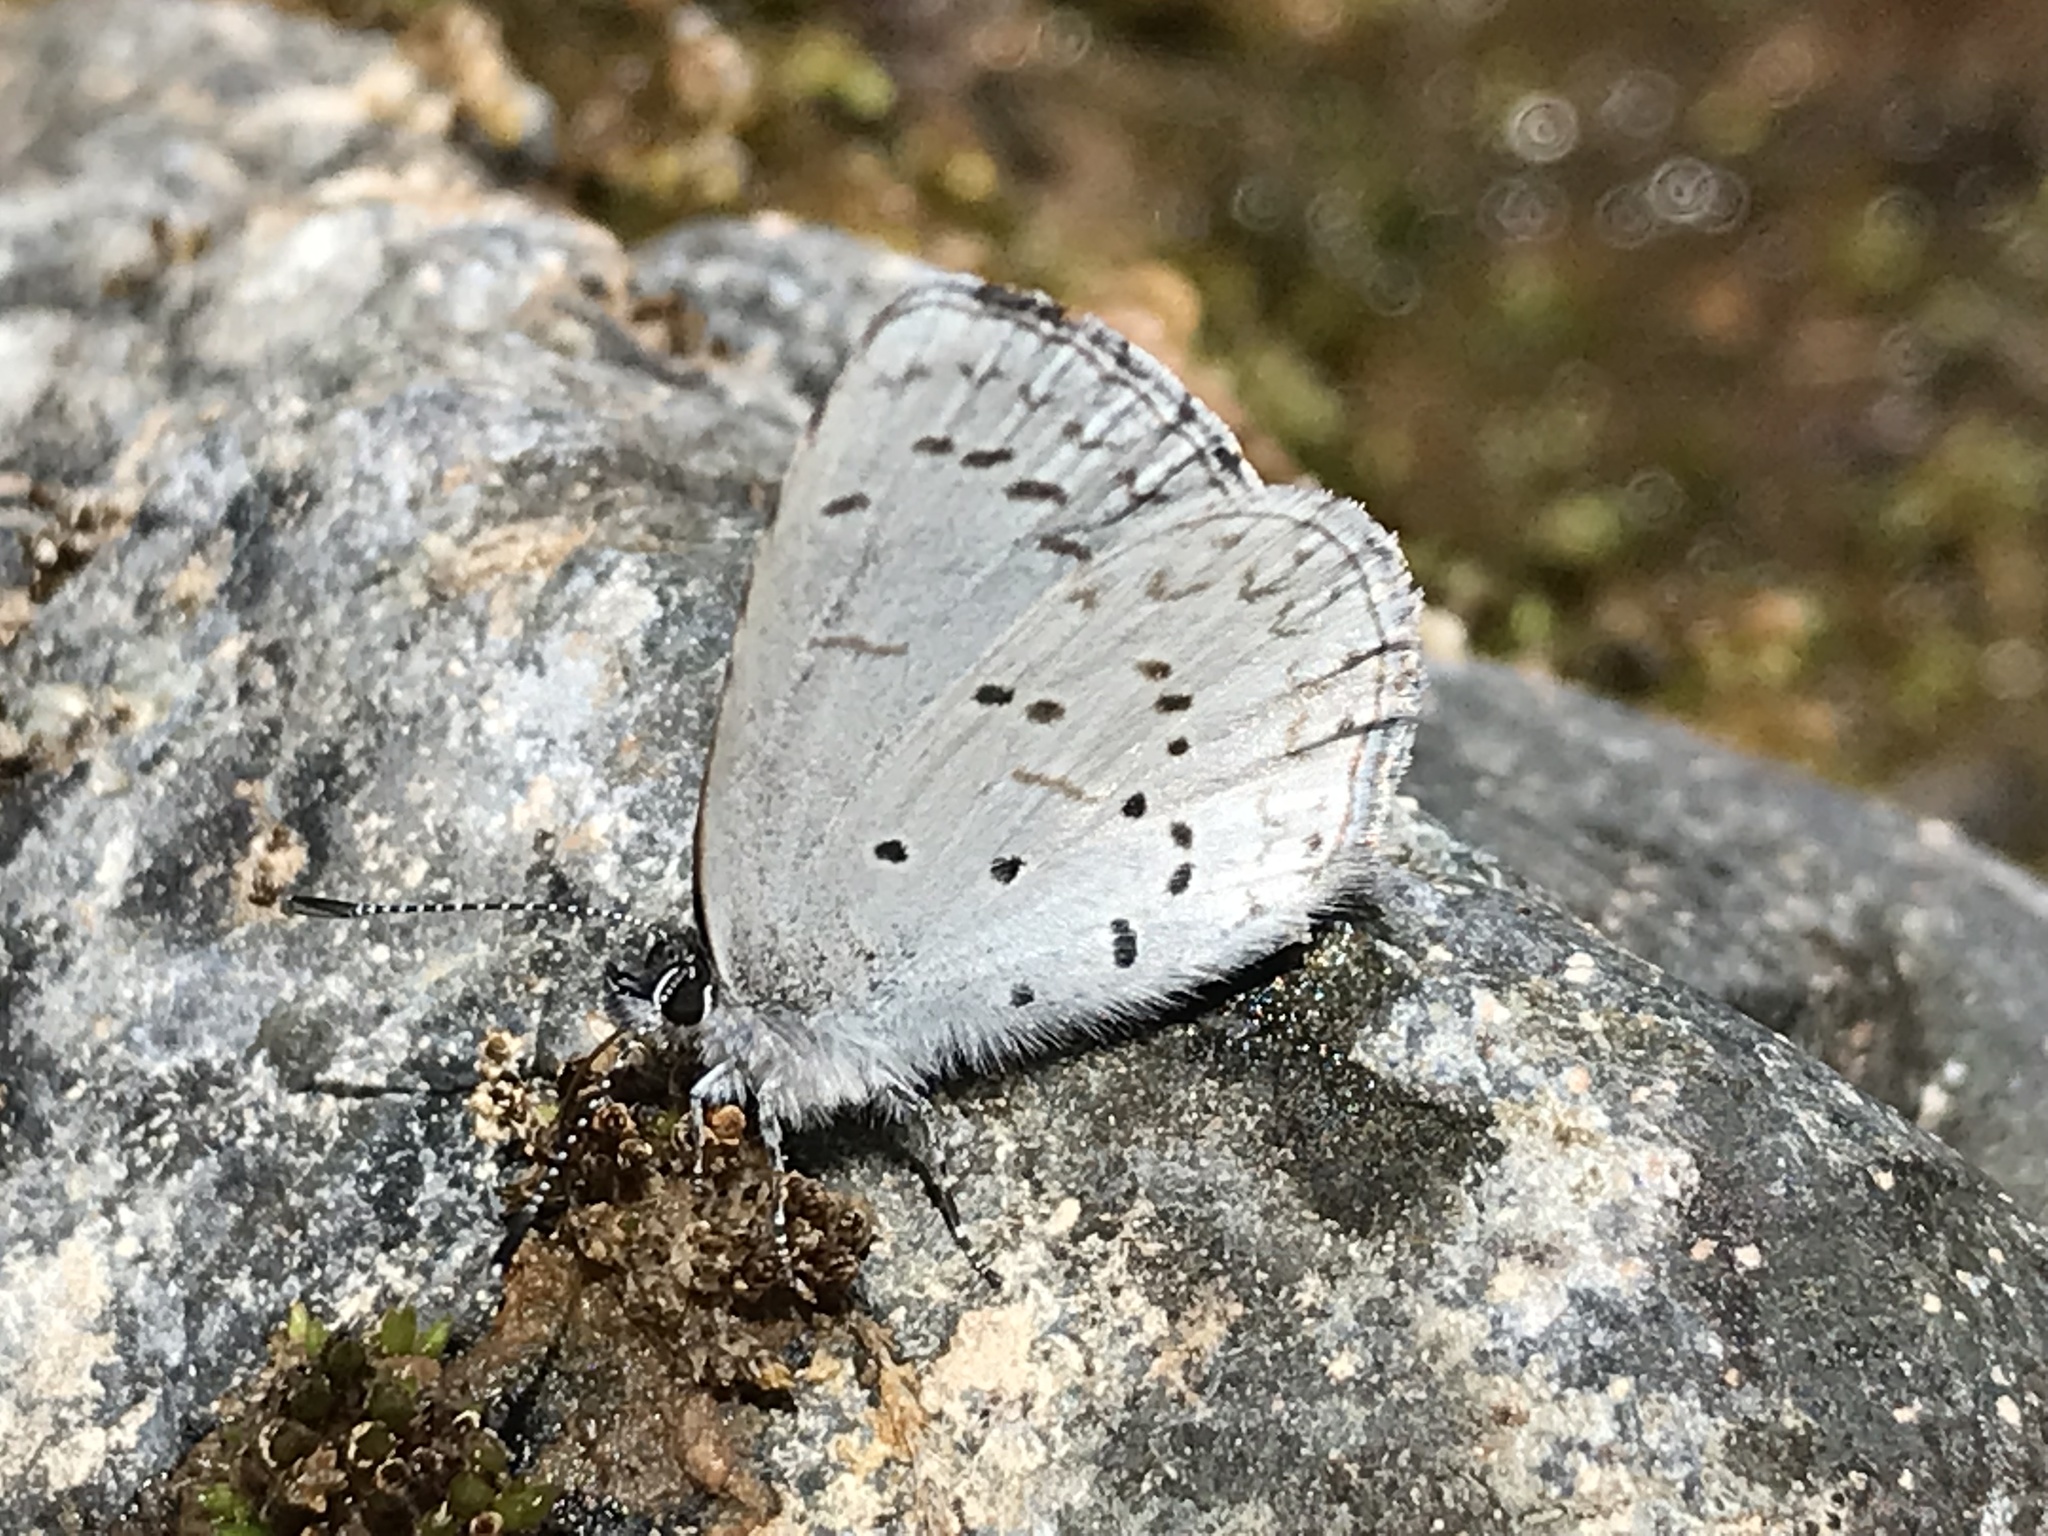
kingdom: Animalia
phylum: Arthropoda
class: Insecta
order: Lepidoptera
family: Lycaenidae
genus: Celastrina
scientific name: Celastrina ladon
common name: Spring azure
